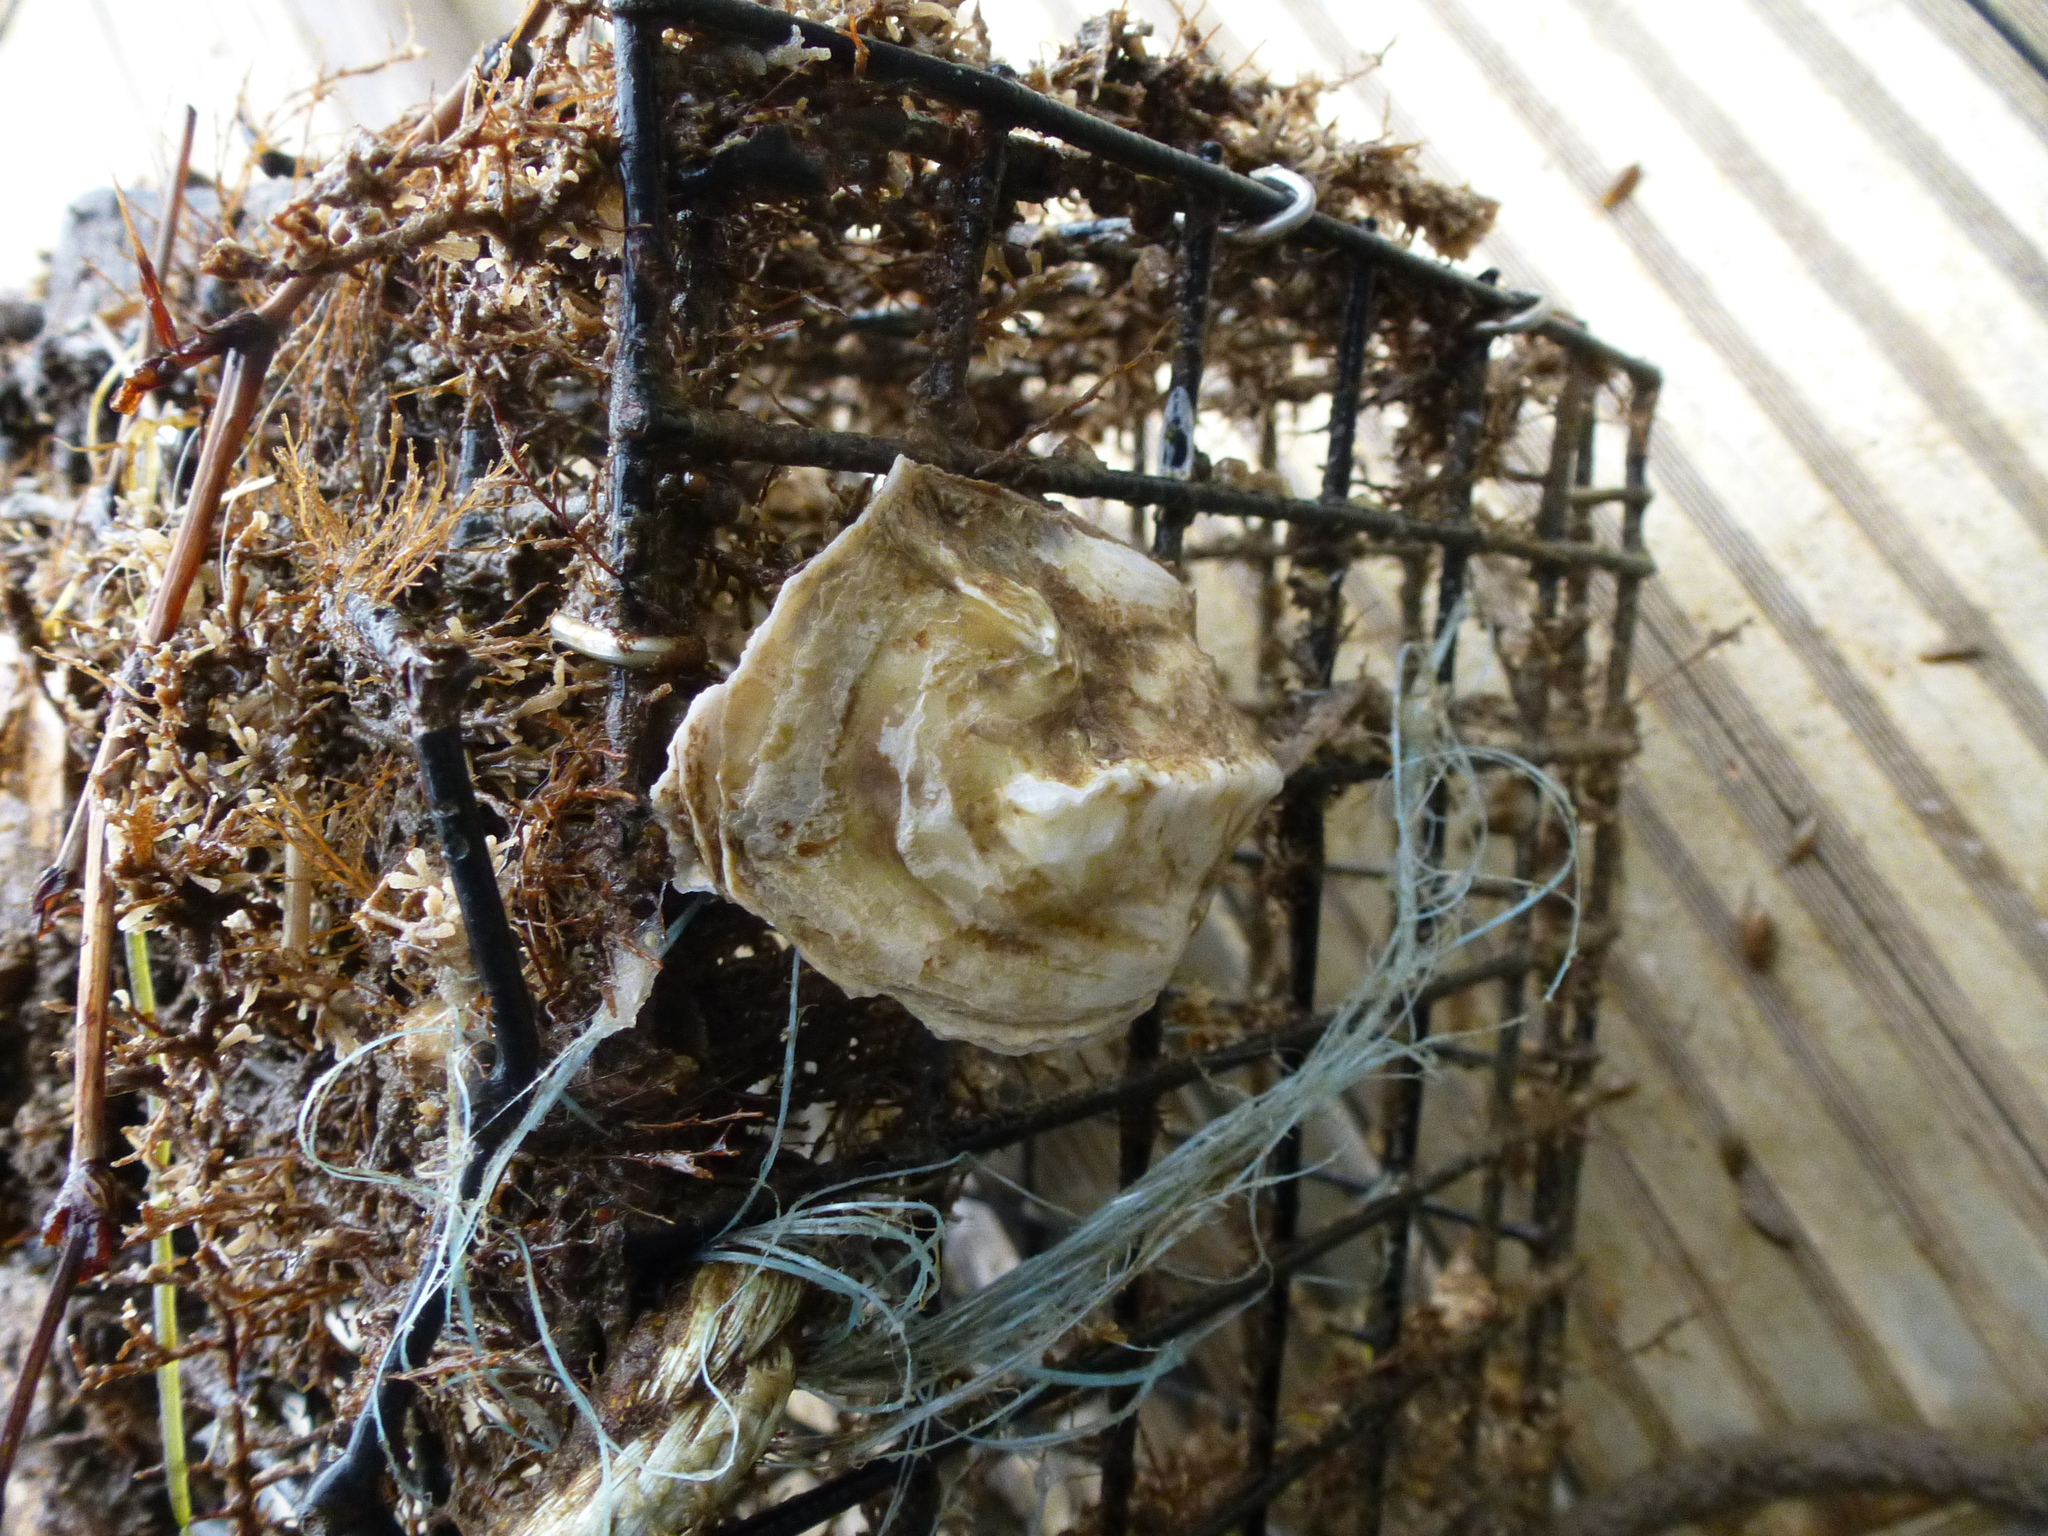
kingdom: Animalia
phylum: Mollusca
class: Bivalvia
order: Ostreida
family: Ostreidae
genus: Crassostrea
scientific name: Crassostrea virginica
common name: American oyster
